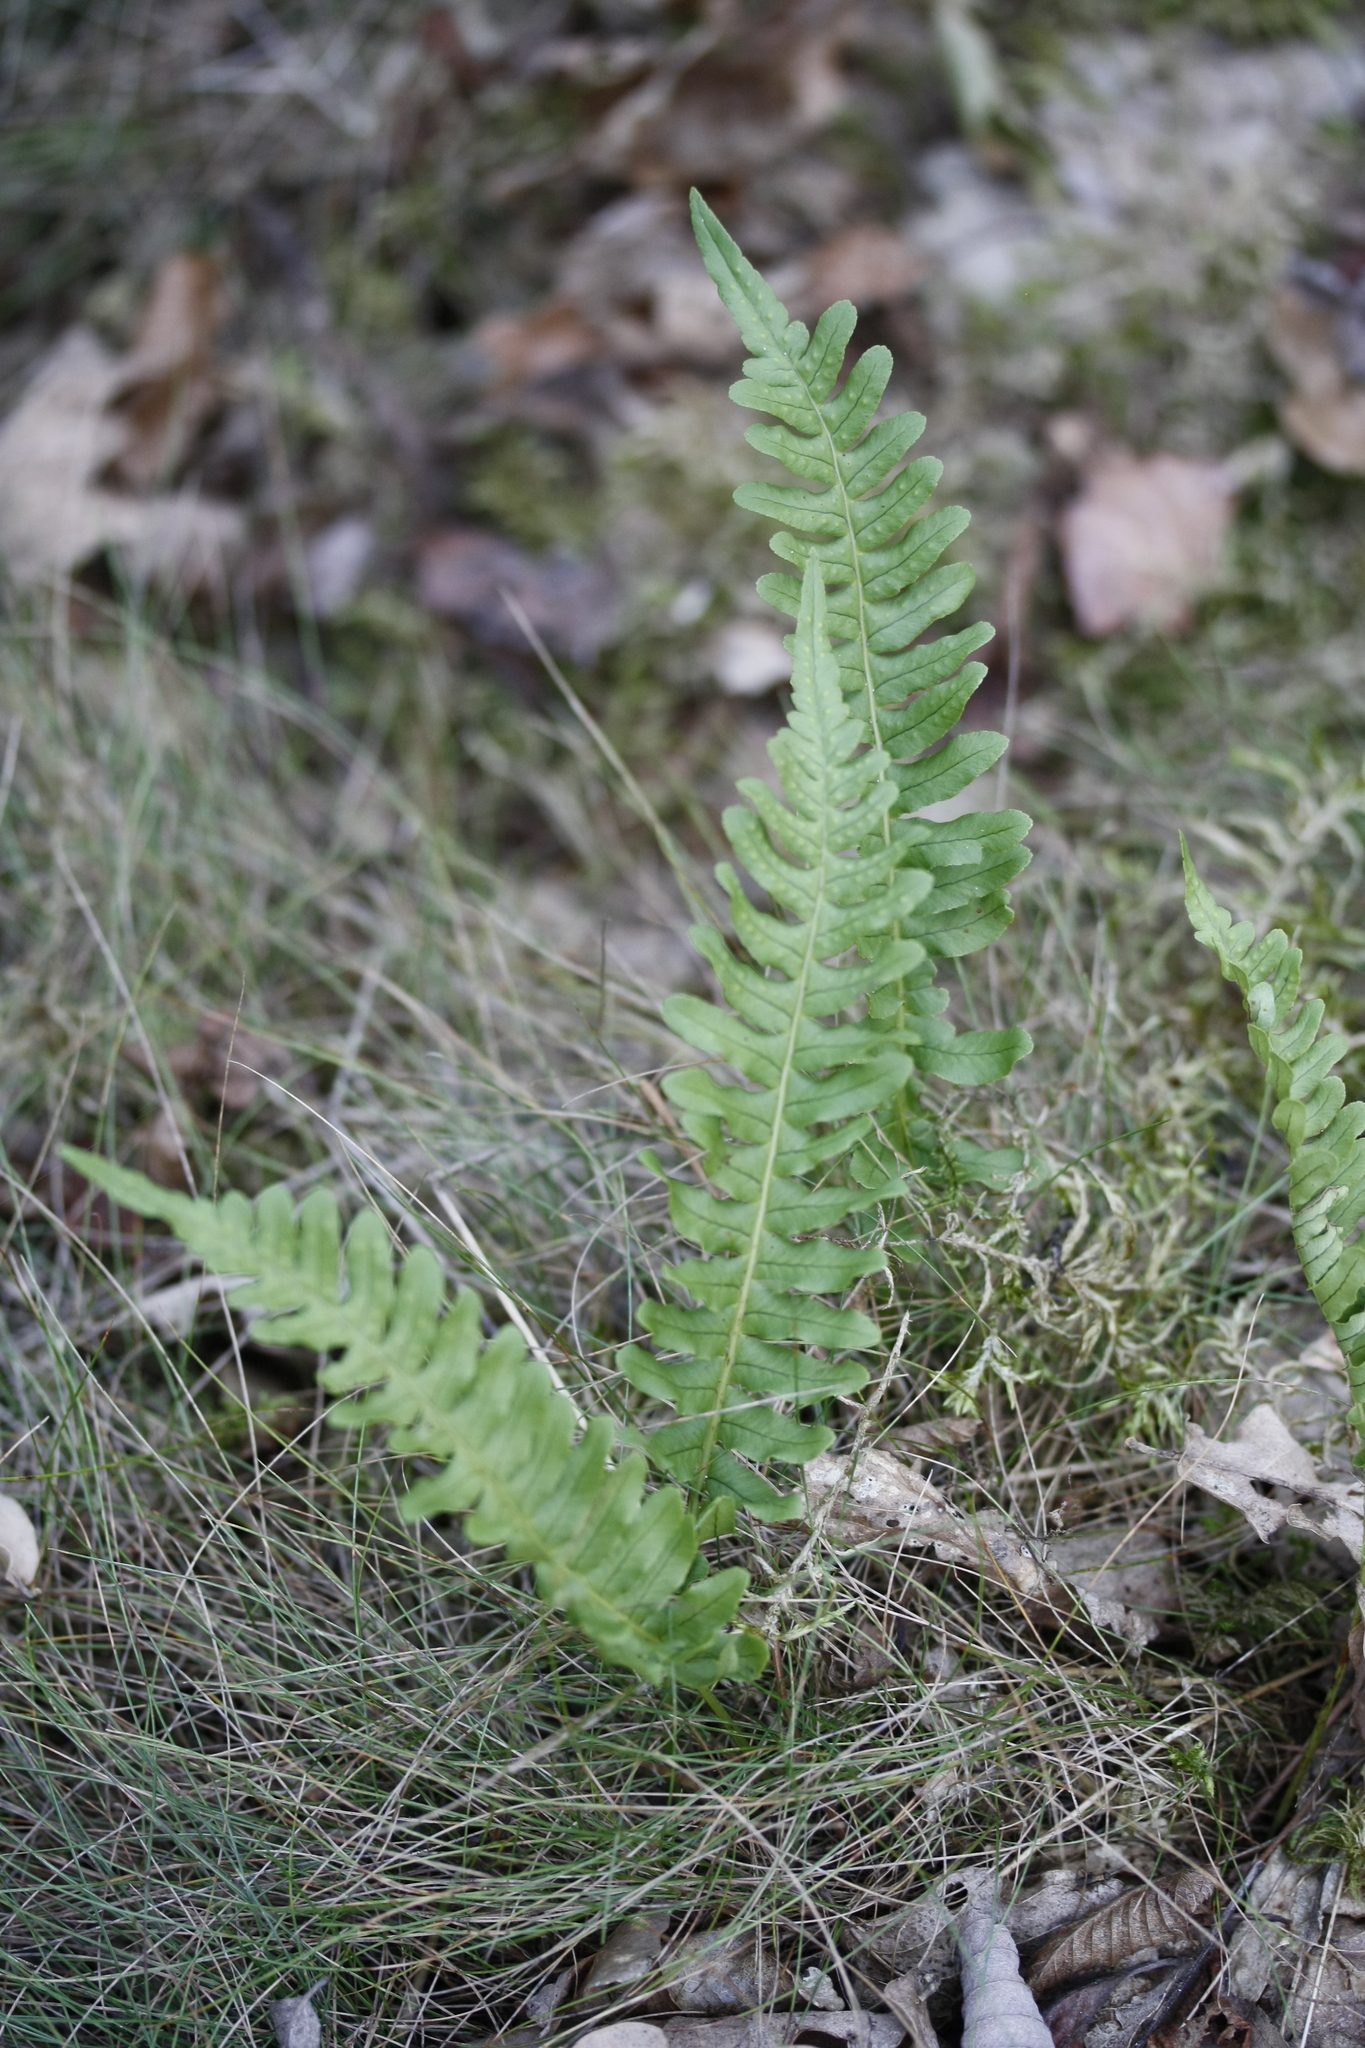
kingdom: Plantae
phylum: Tracheophyta
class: Polypodiopsida
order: Polypodiales
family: Polypodiaceae
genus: Polypodium
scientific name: Polypodium vulgare
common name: Common polypody
